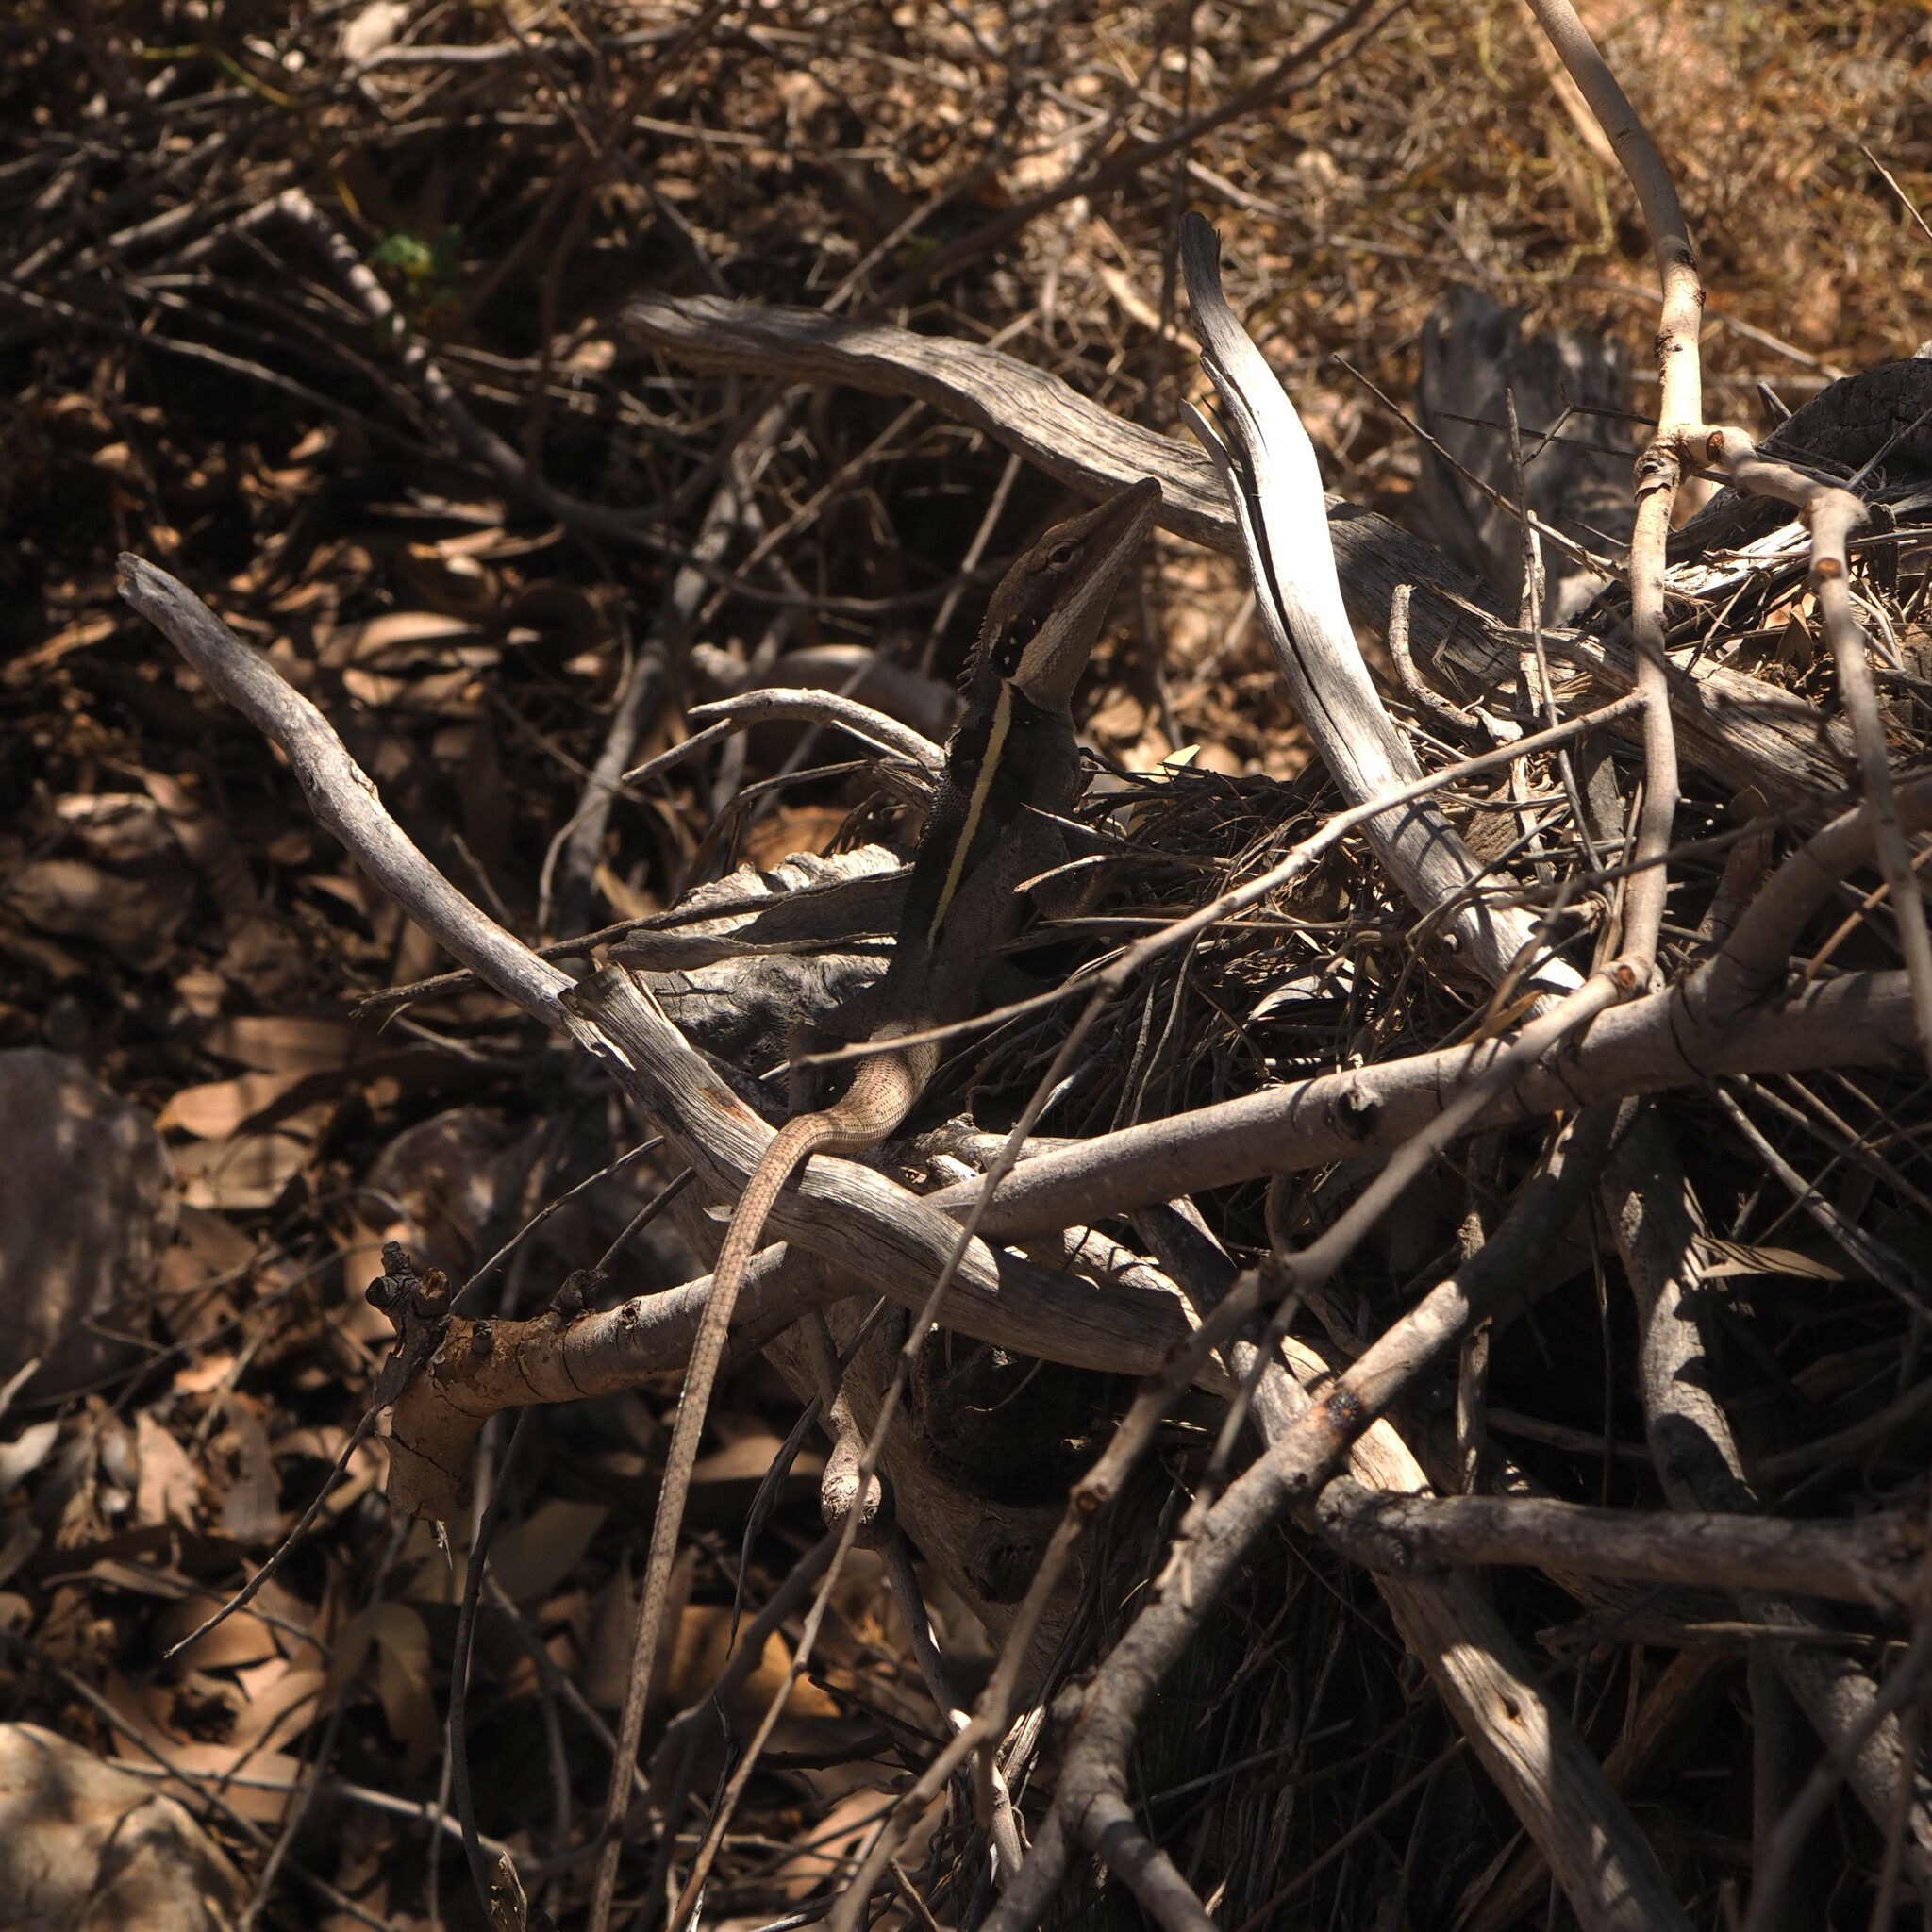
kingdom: Animalia
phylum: Chordata
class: Squamata
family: Agamidae
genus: Gowidon
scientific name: Gowidon longirostris
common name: Long-nosed water dragon
